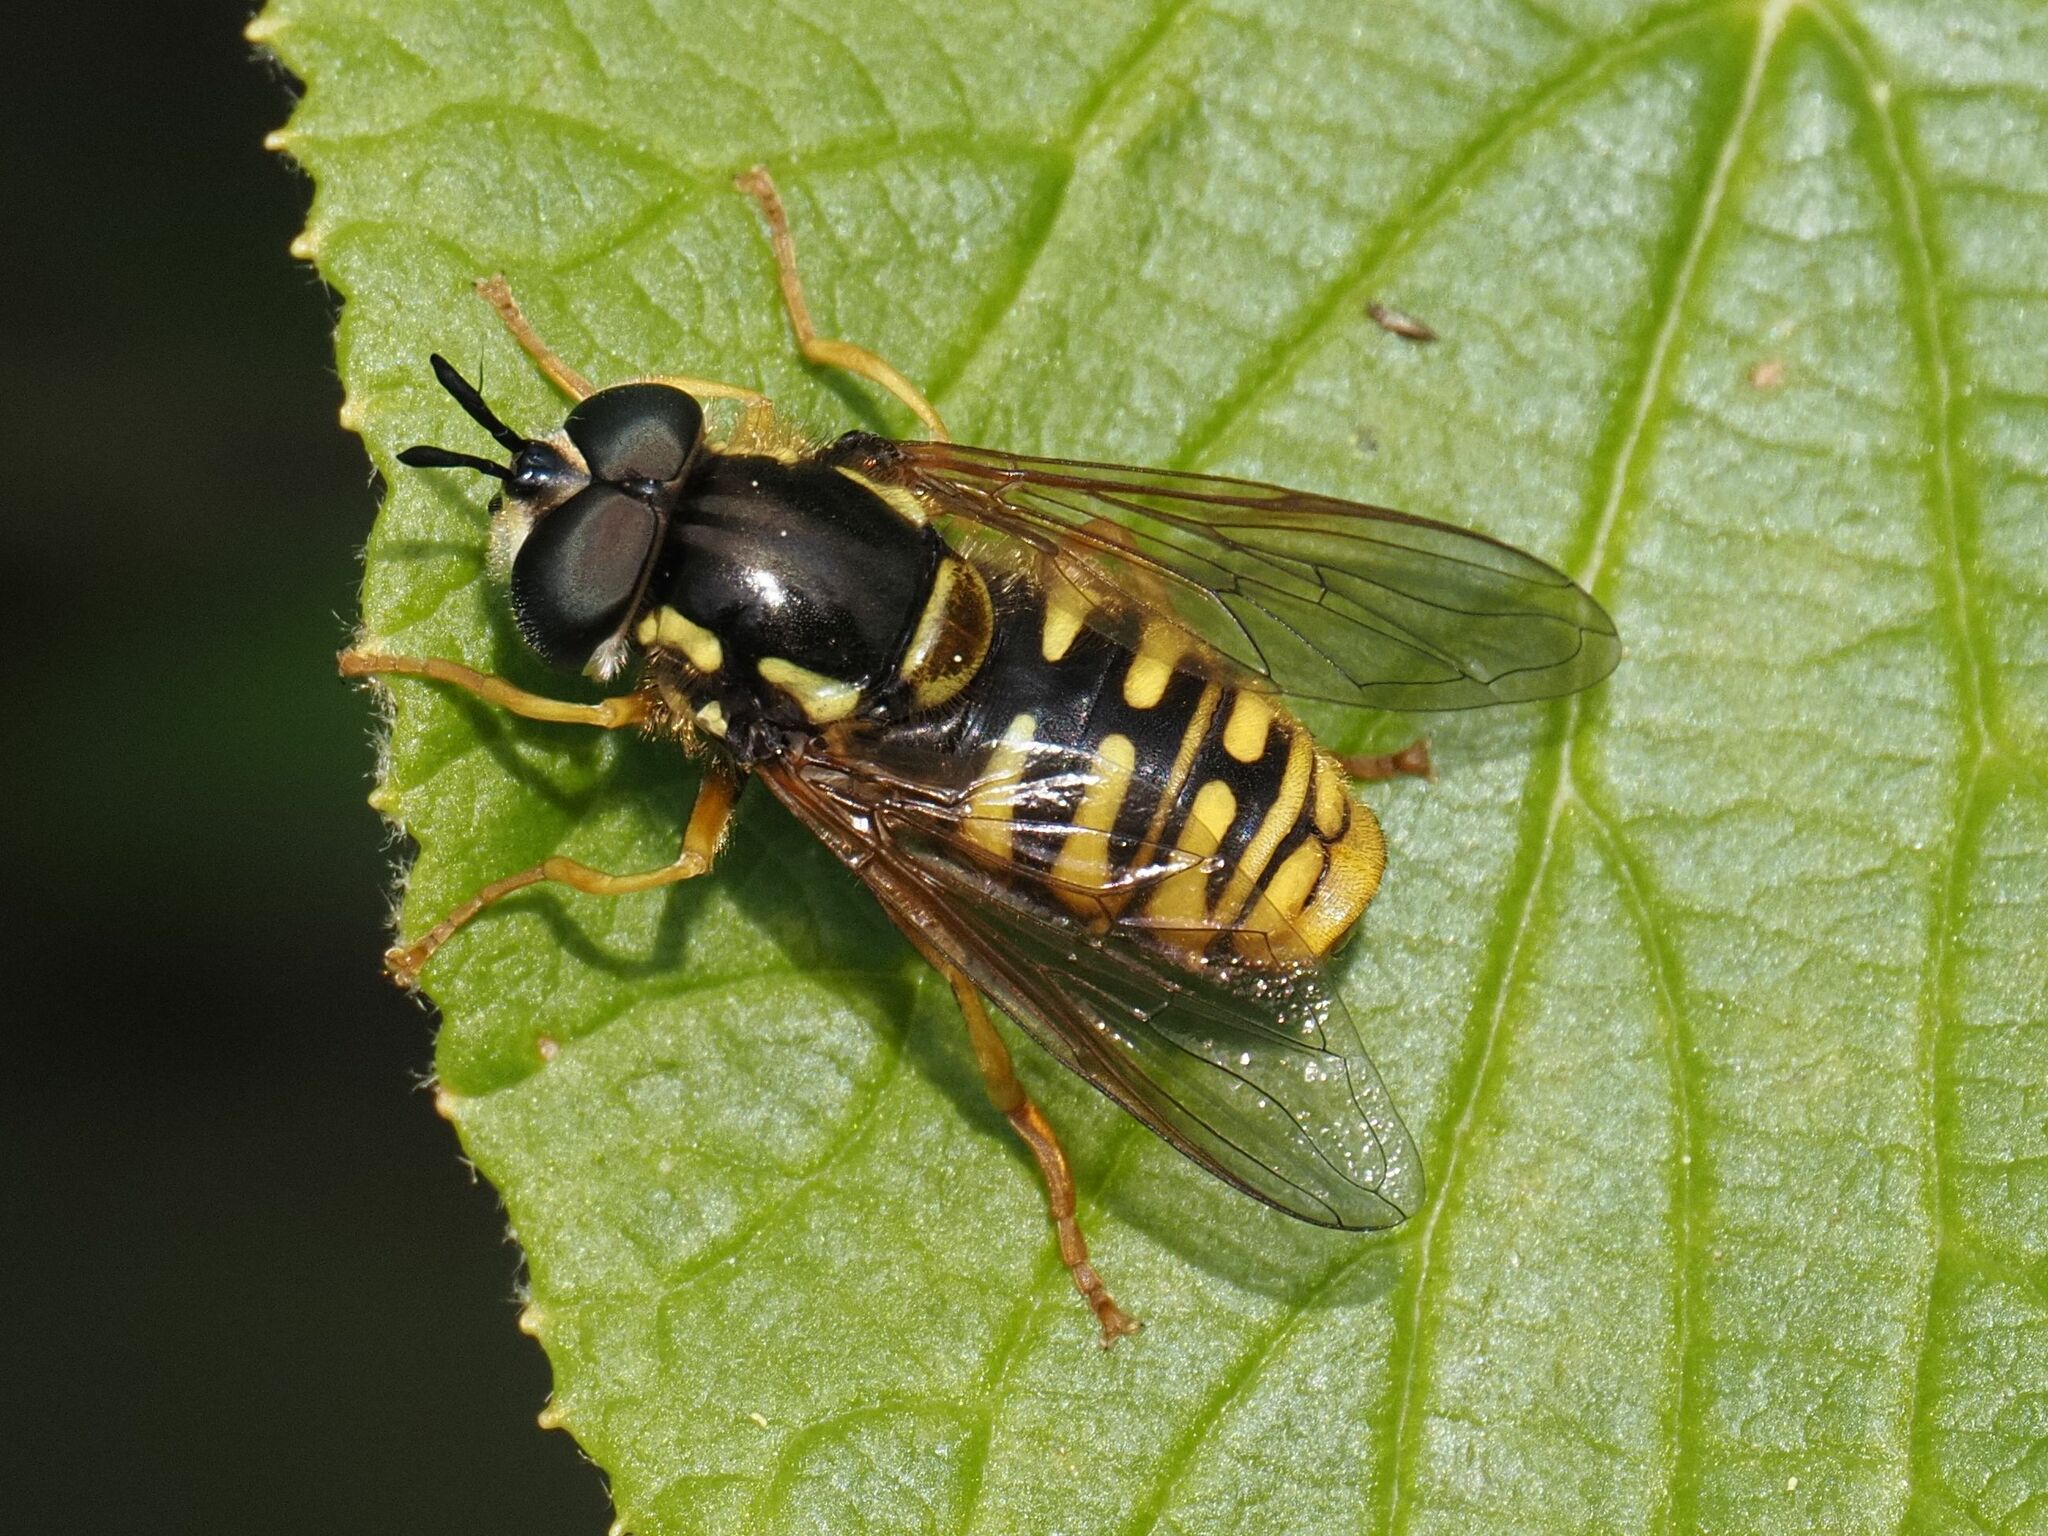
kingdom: Animalia
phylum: Arthropoda
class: Insecta
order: Diptera
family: Syrphidae
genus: Chrysotoxum
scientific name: Chrysotoxum cautum
